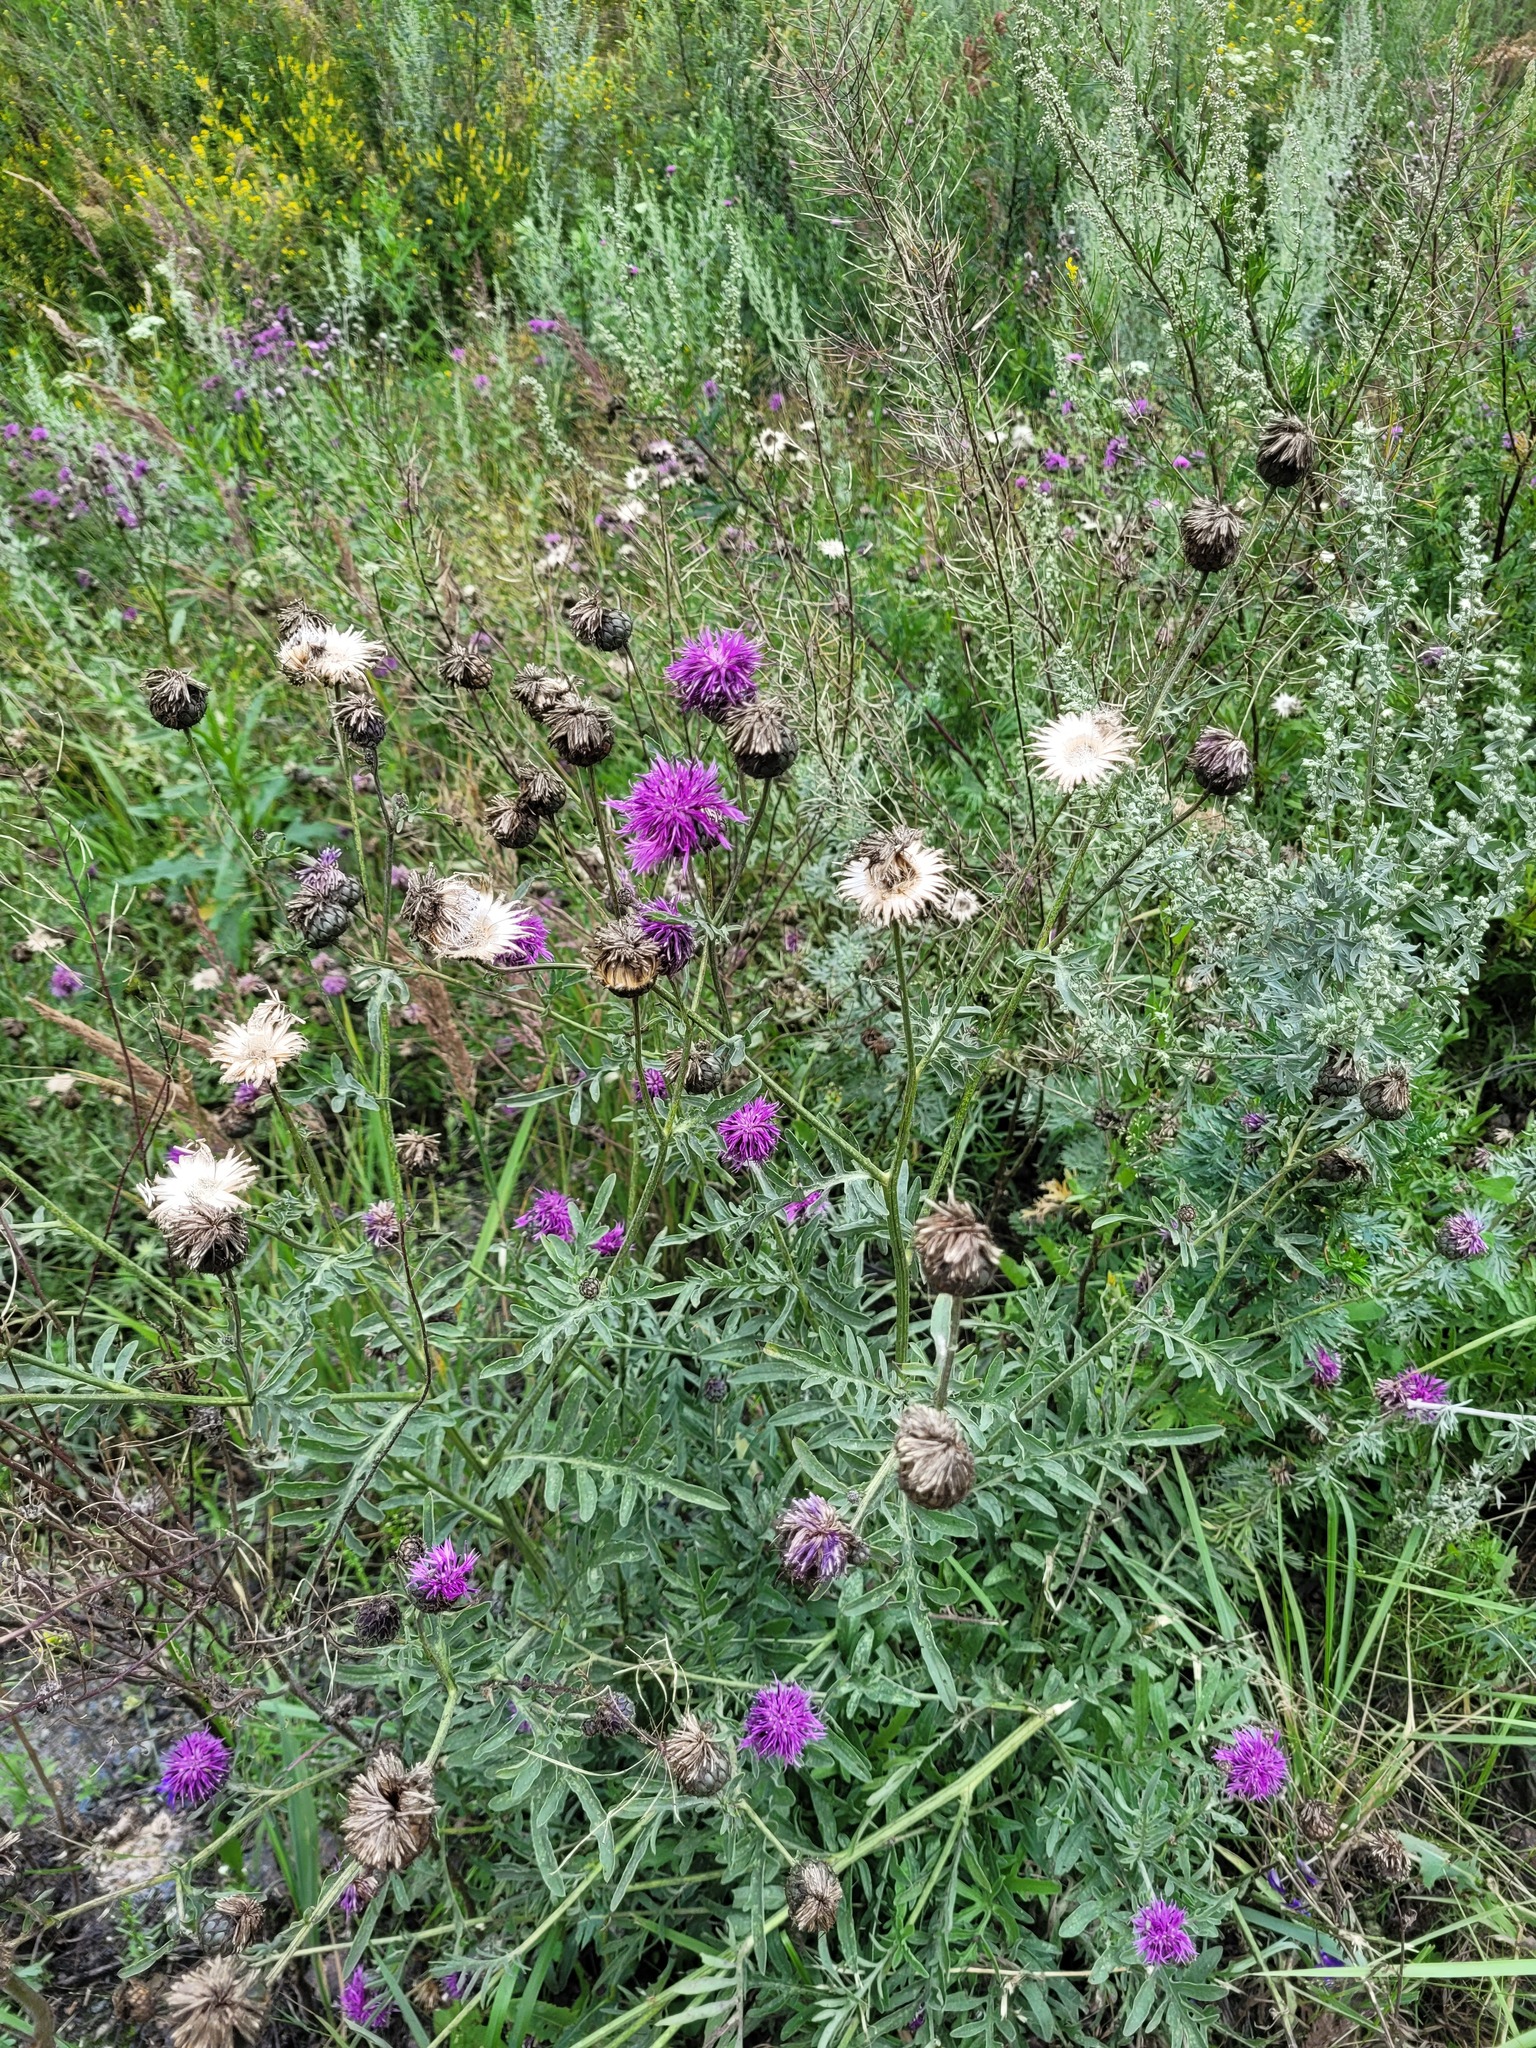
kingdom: Plantae
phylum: Tracheophyta
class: Magnoliopsida
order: Asterales
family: Asteraceae
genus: Centaurea
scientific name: Centaurea scabiosa
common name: Greater knapweed
